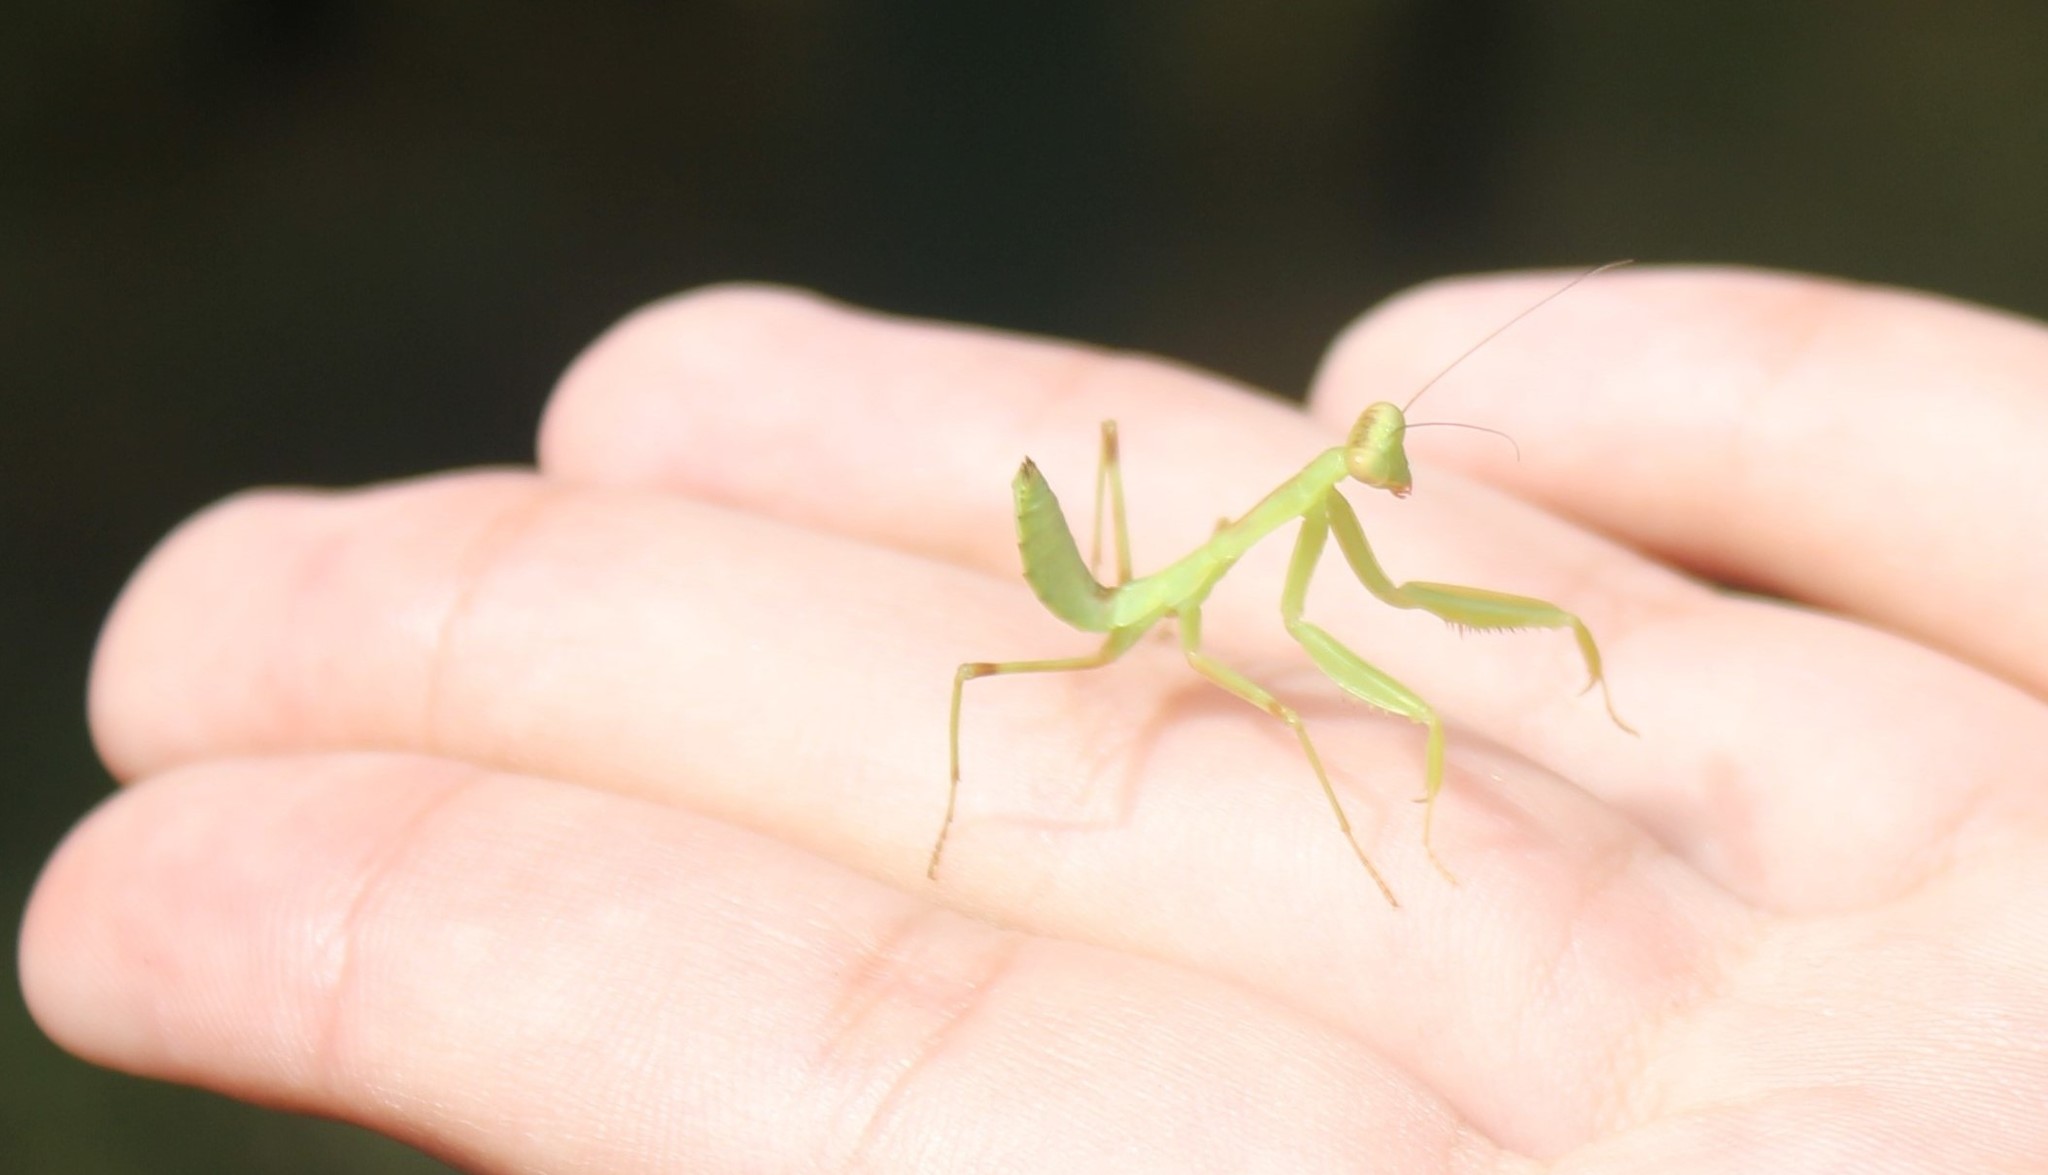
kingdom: Animalia
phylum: Arthropoda
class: Insecta
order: Mantodea
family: Mantidae
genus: Hierodula
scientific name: Hierodula transcaucasica
